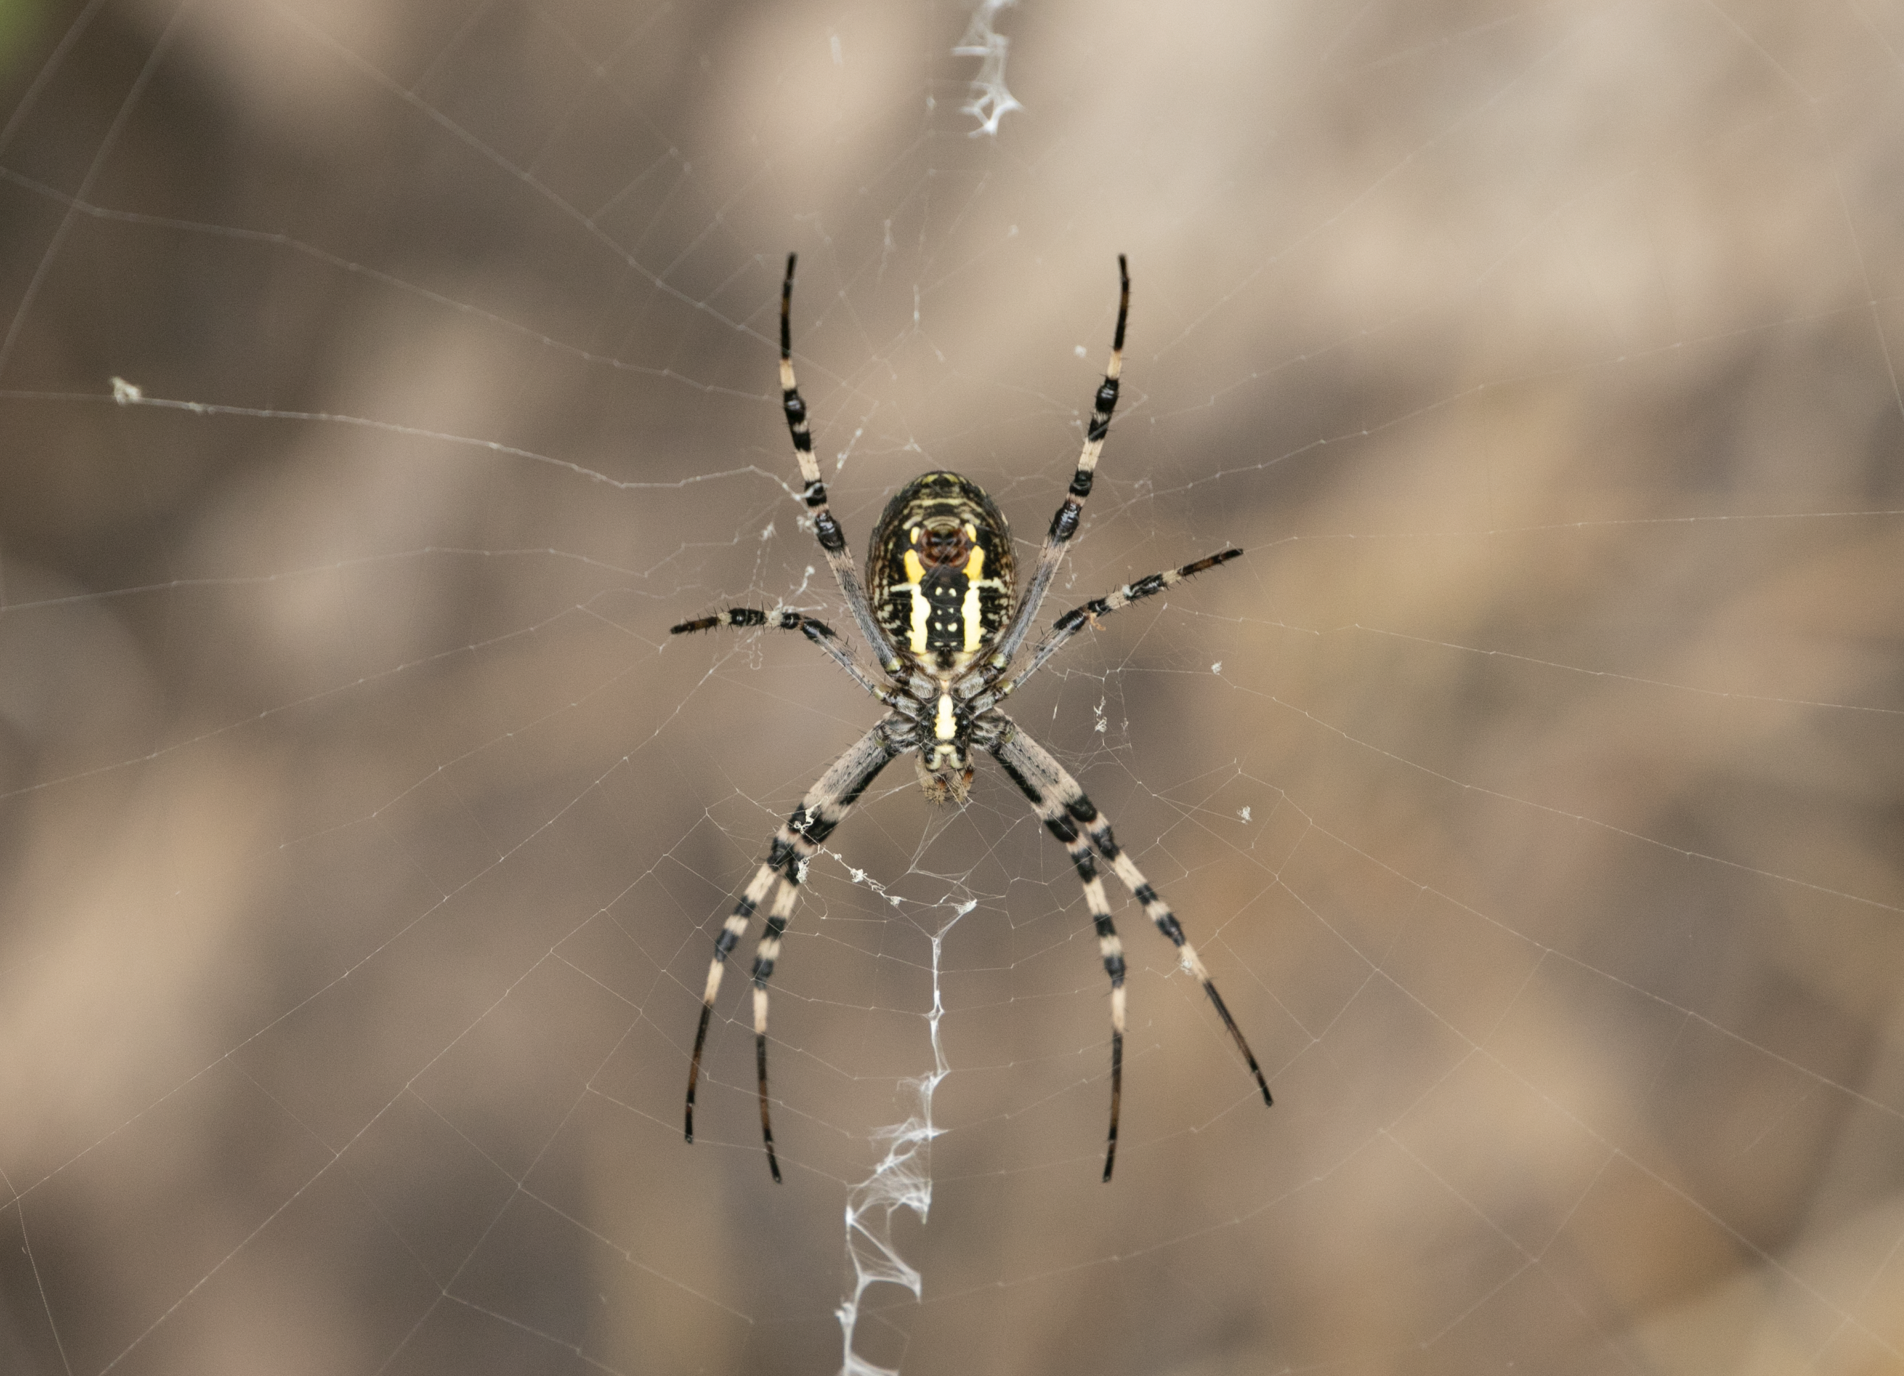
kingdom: Animalia
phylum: Arthropoda
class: Arachnida
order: Araneae
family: Araneidae
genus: Argiope
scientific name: Argiope bruennichi
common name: Wasp spider
